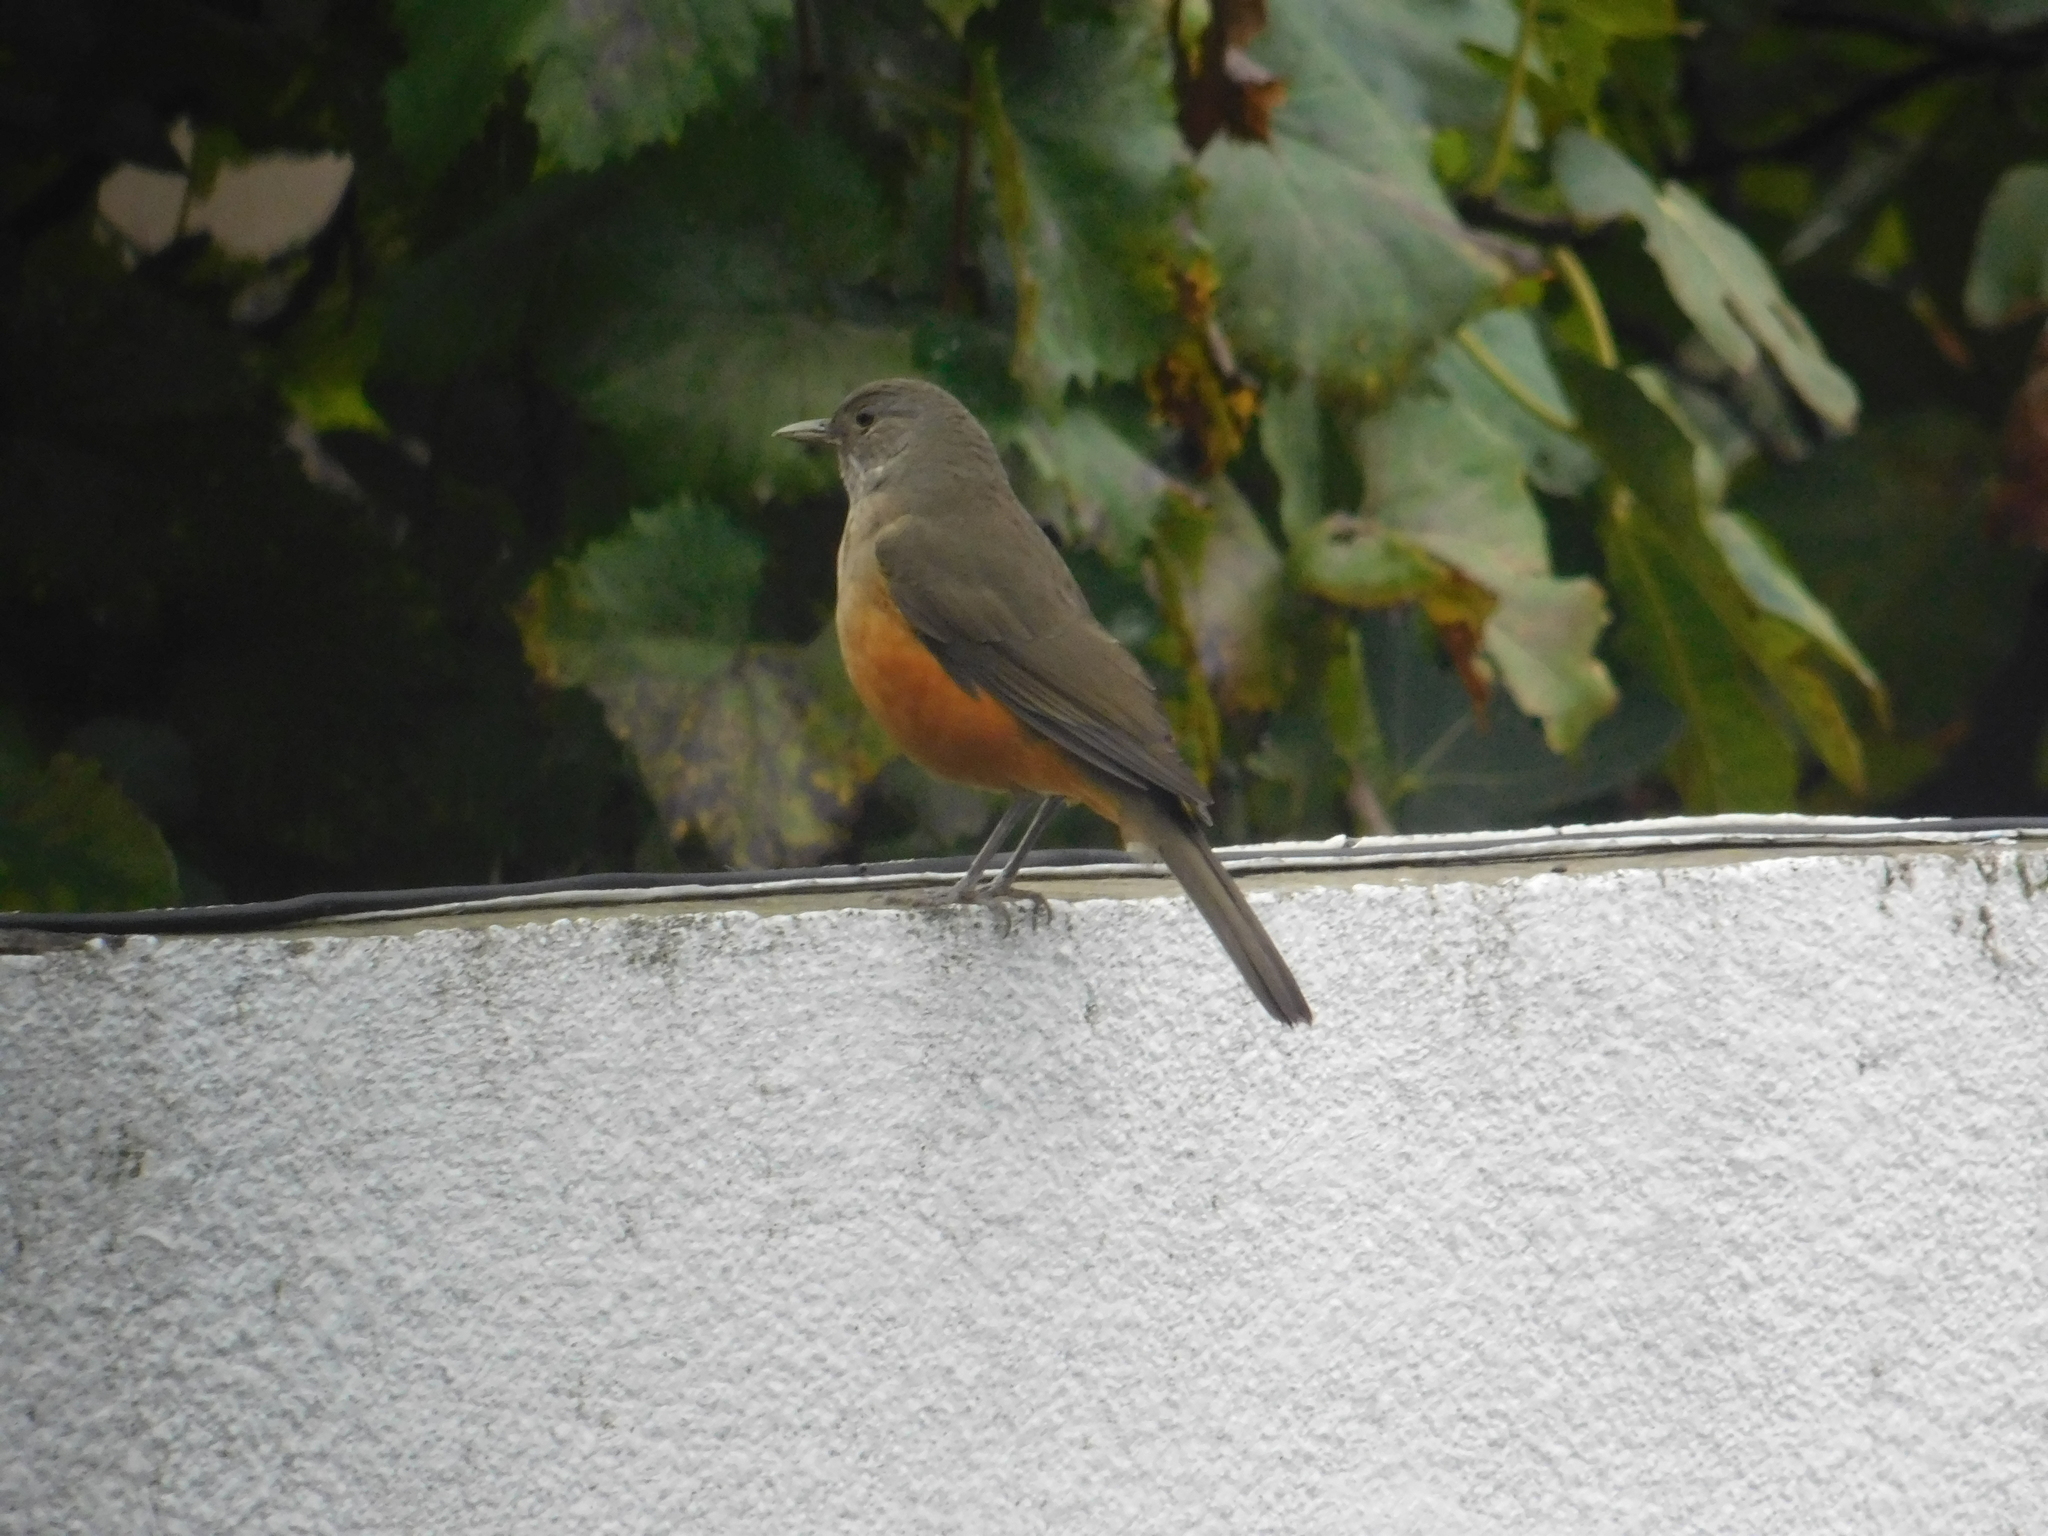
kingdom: Animalia
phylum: Chordata
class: Aves
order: Passeriformes
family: Turdidae
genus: Turdus
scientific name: Turdus rufiventris
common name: Rufous-bellied thrush
